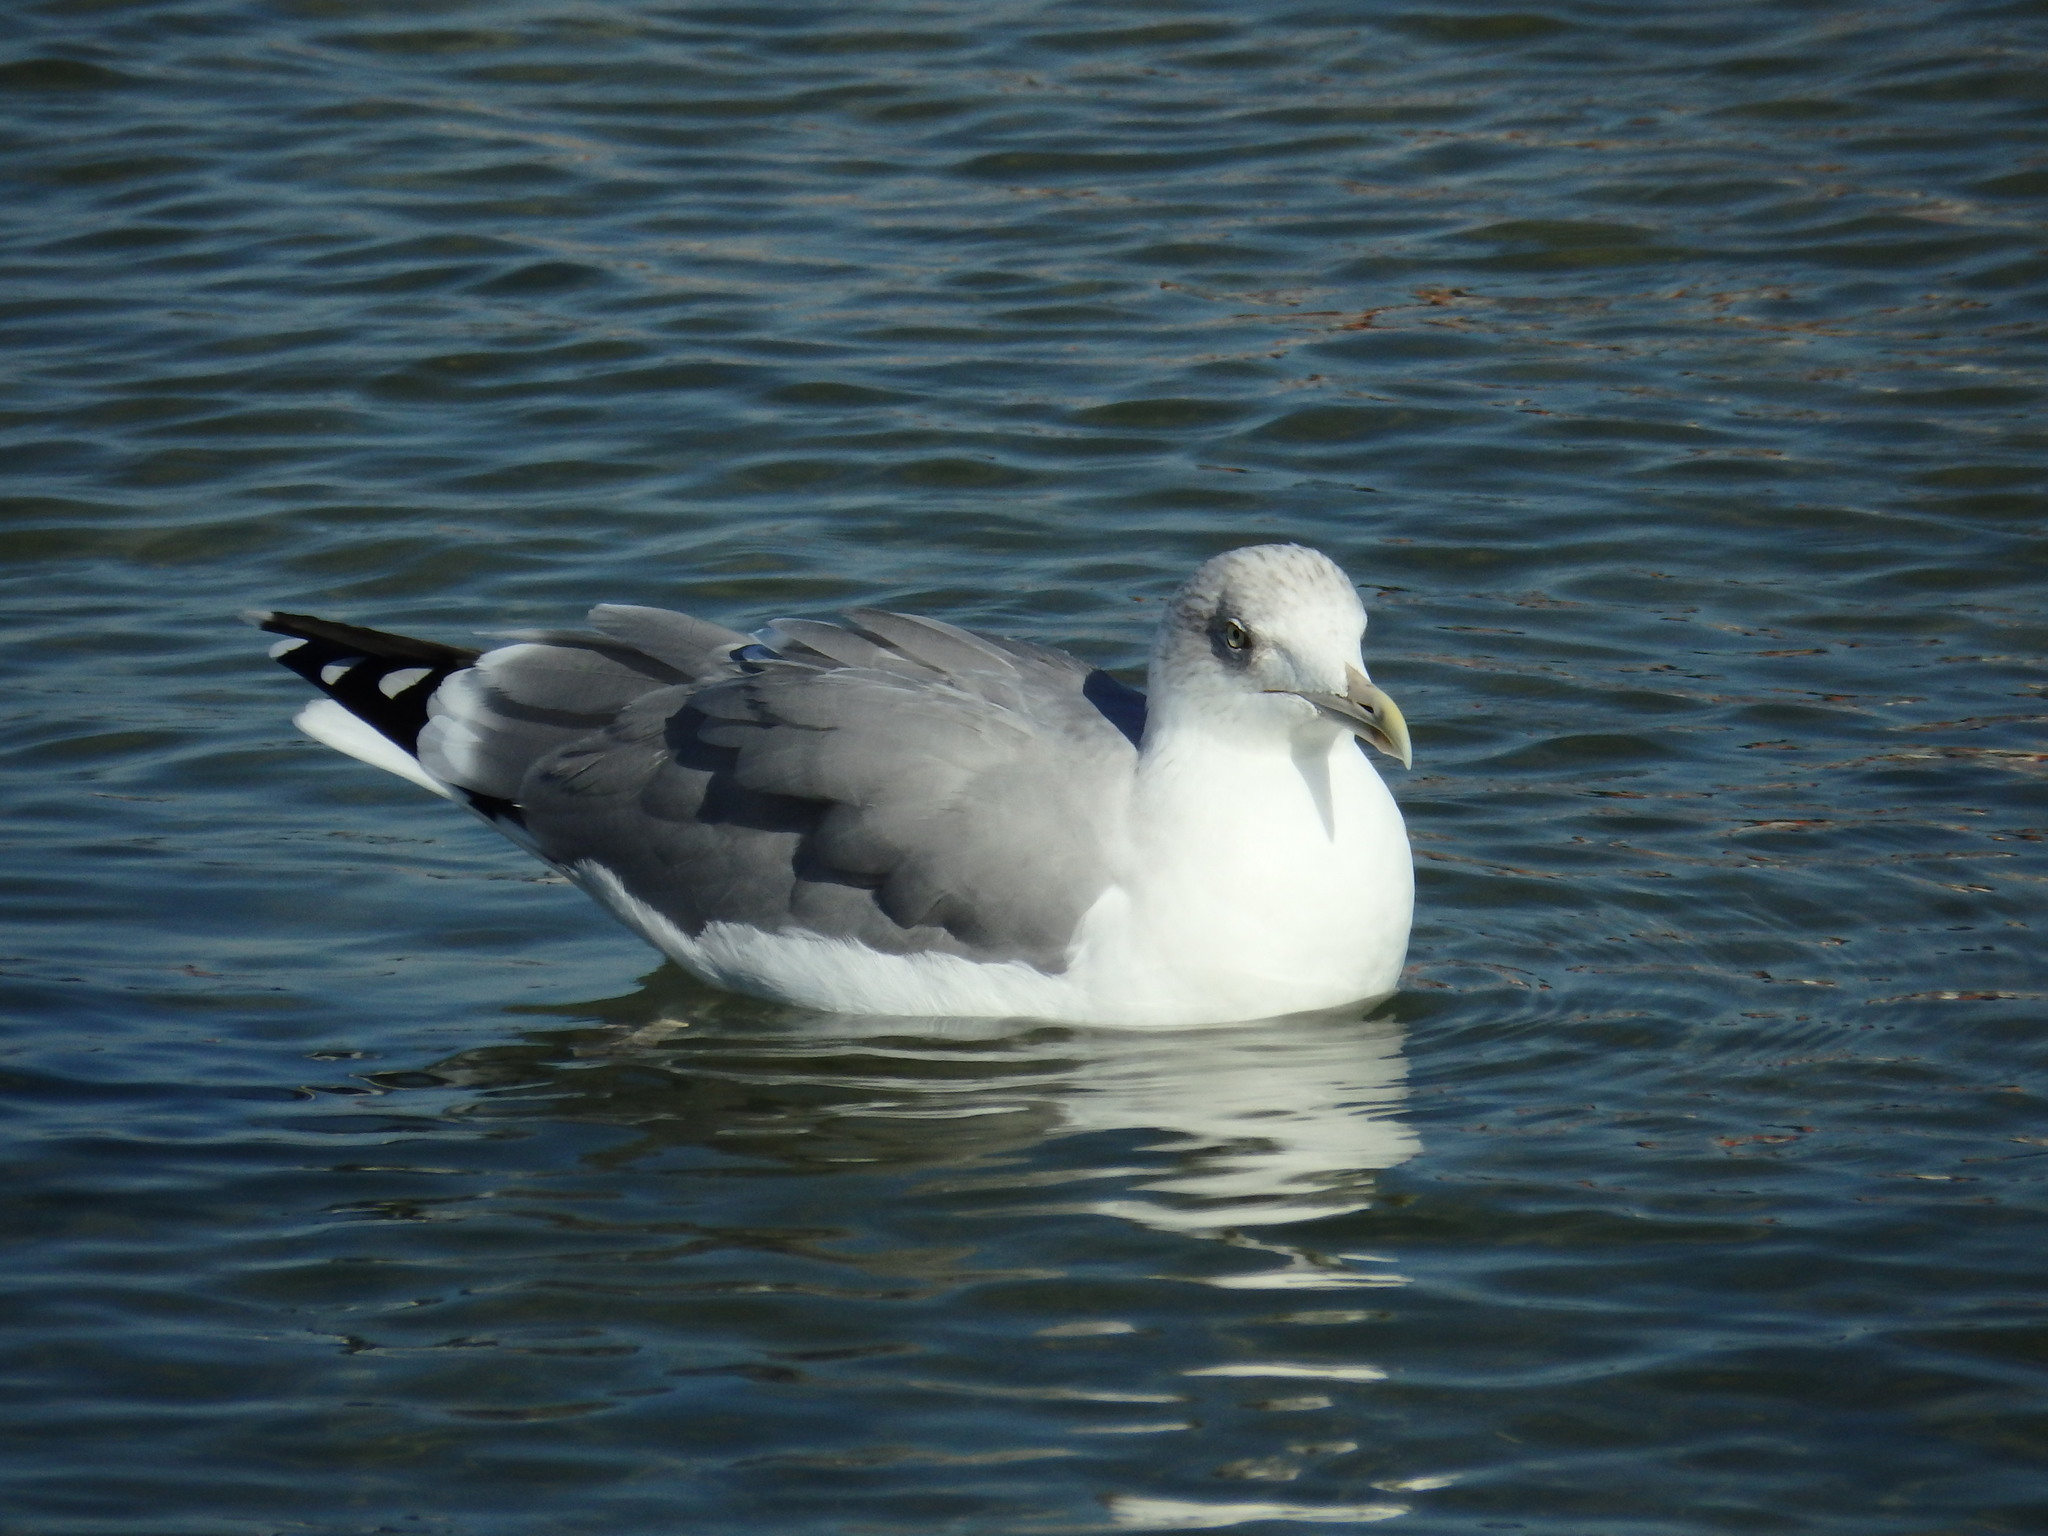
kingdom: Animalia
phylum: Chordata
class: Aves
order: Charadriiformes
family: Laridae
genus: Larus
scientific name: Larus michahellis
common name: Yellow-legged gull
